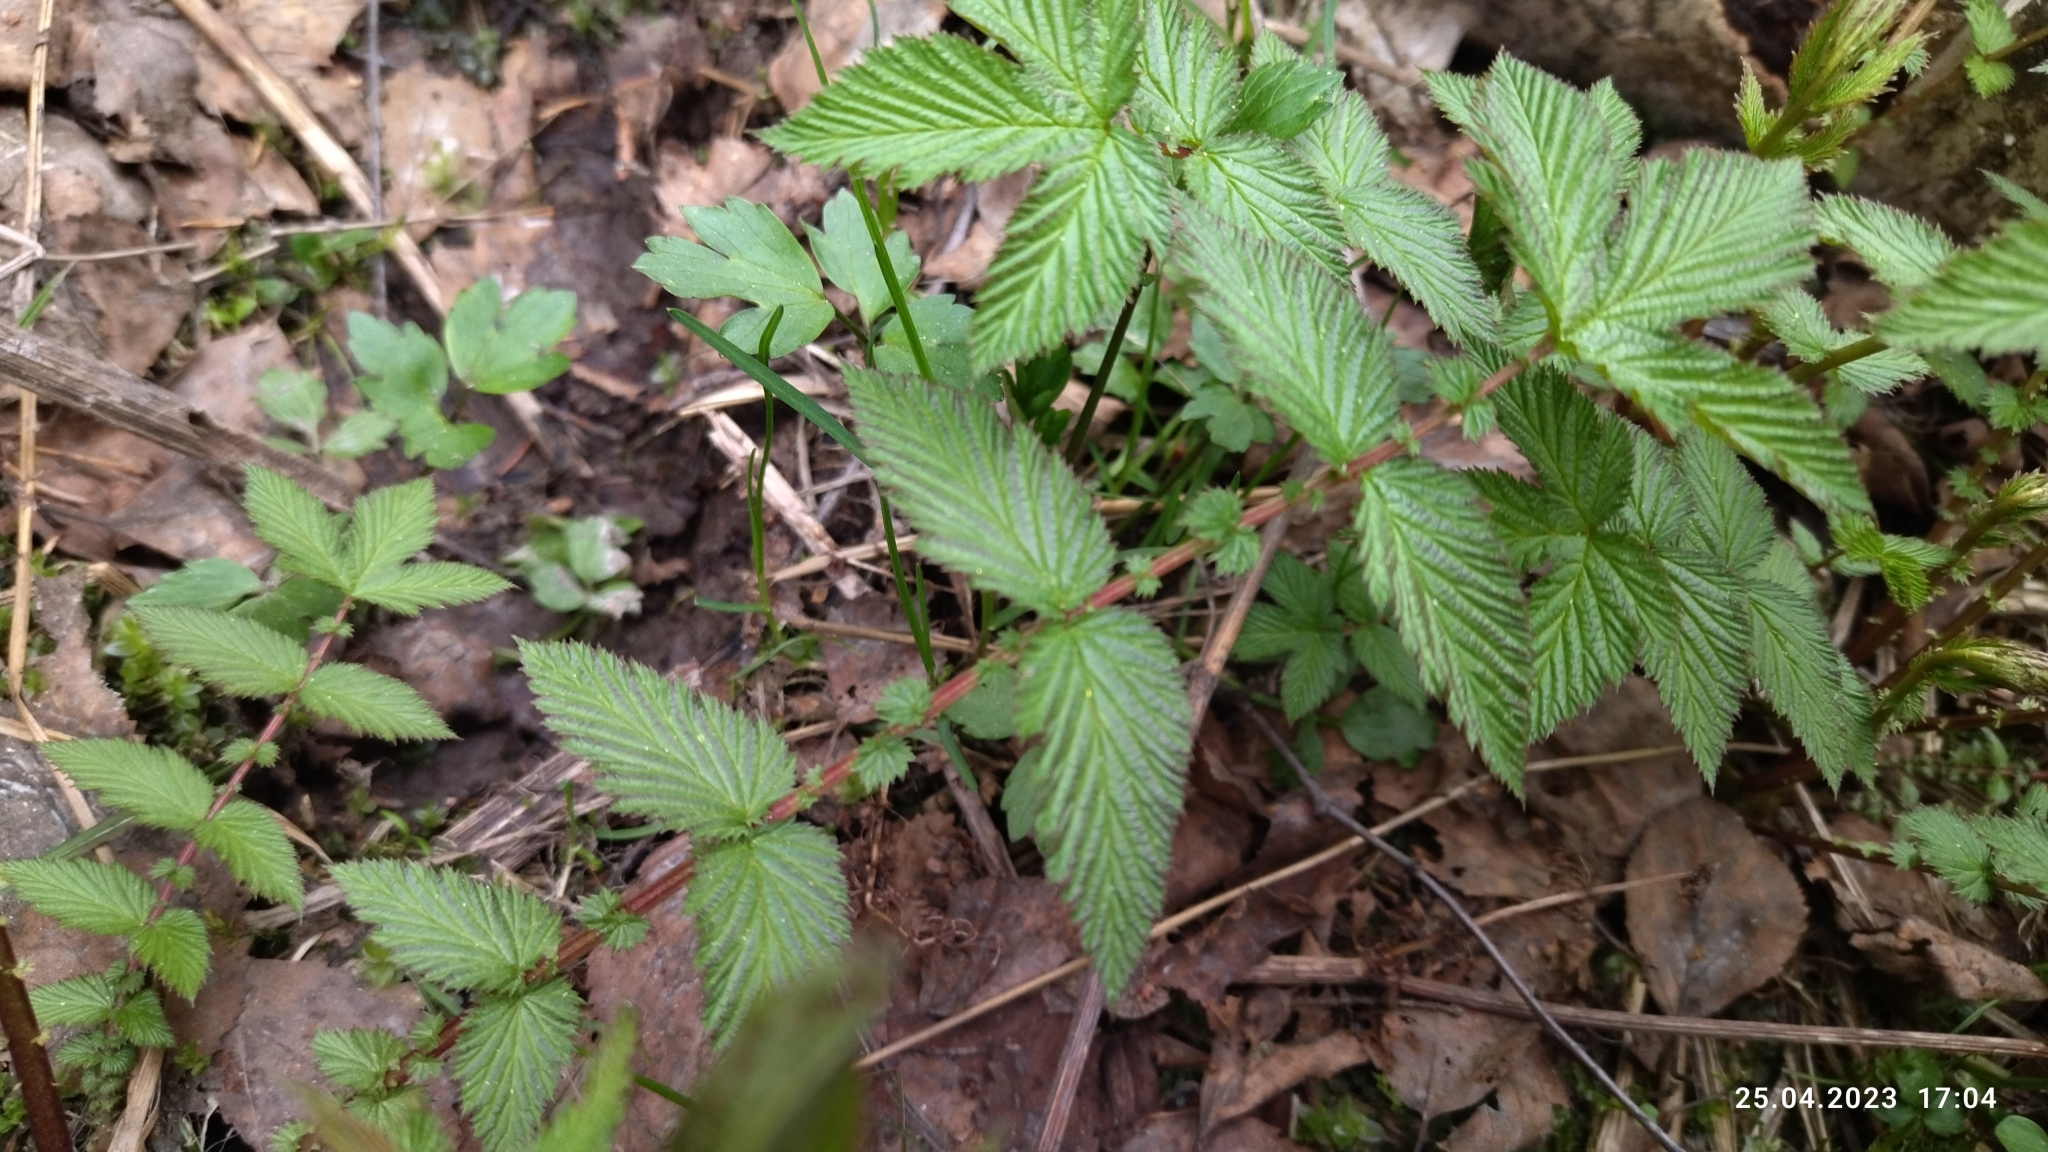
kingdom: Plantae
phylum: Tracheophyta
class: Magnoliopsida
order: Rosales
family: Rosaceae
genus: Filipendula
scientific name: Filipendula ulmaria
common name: Meadowsweet
